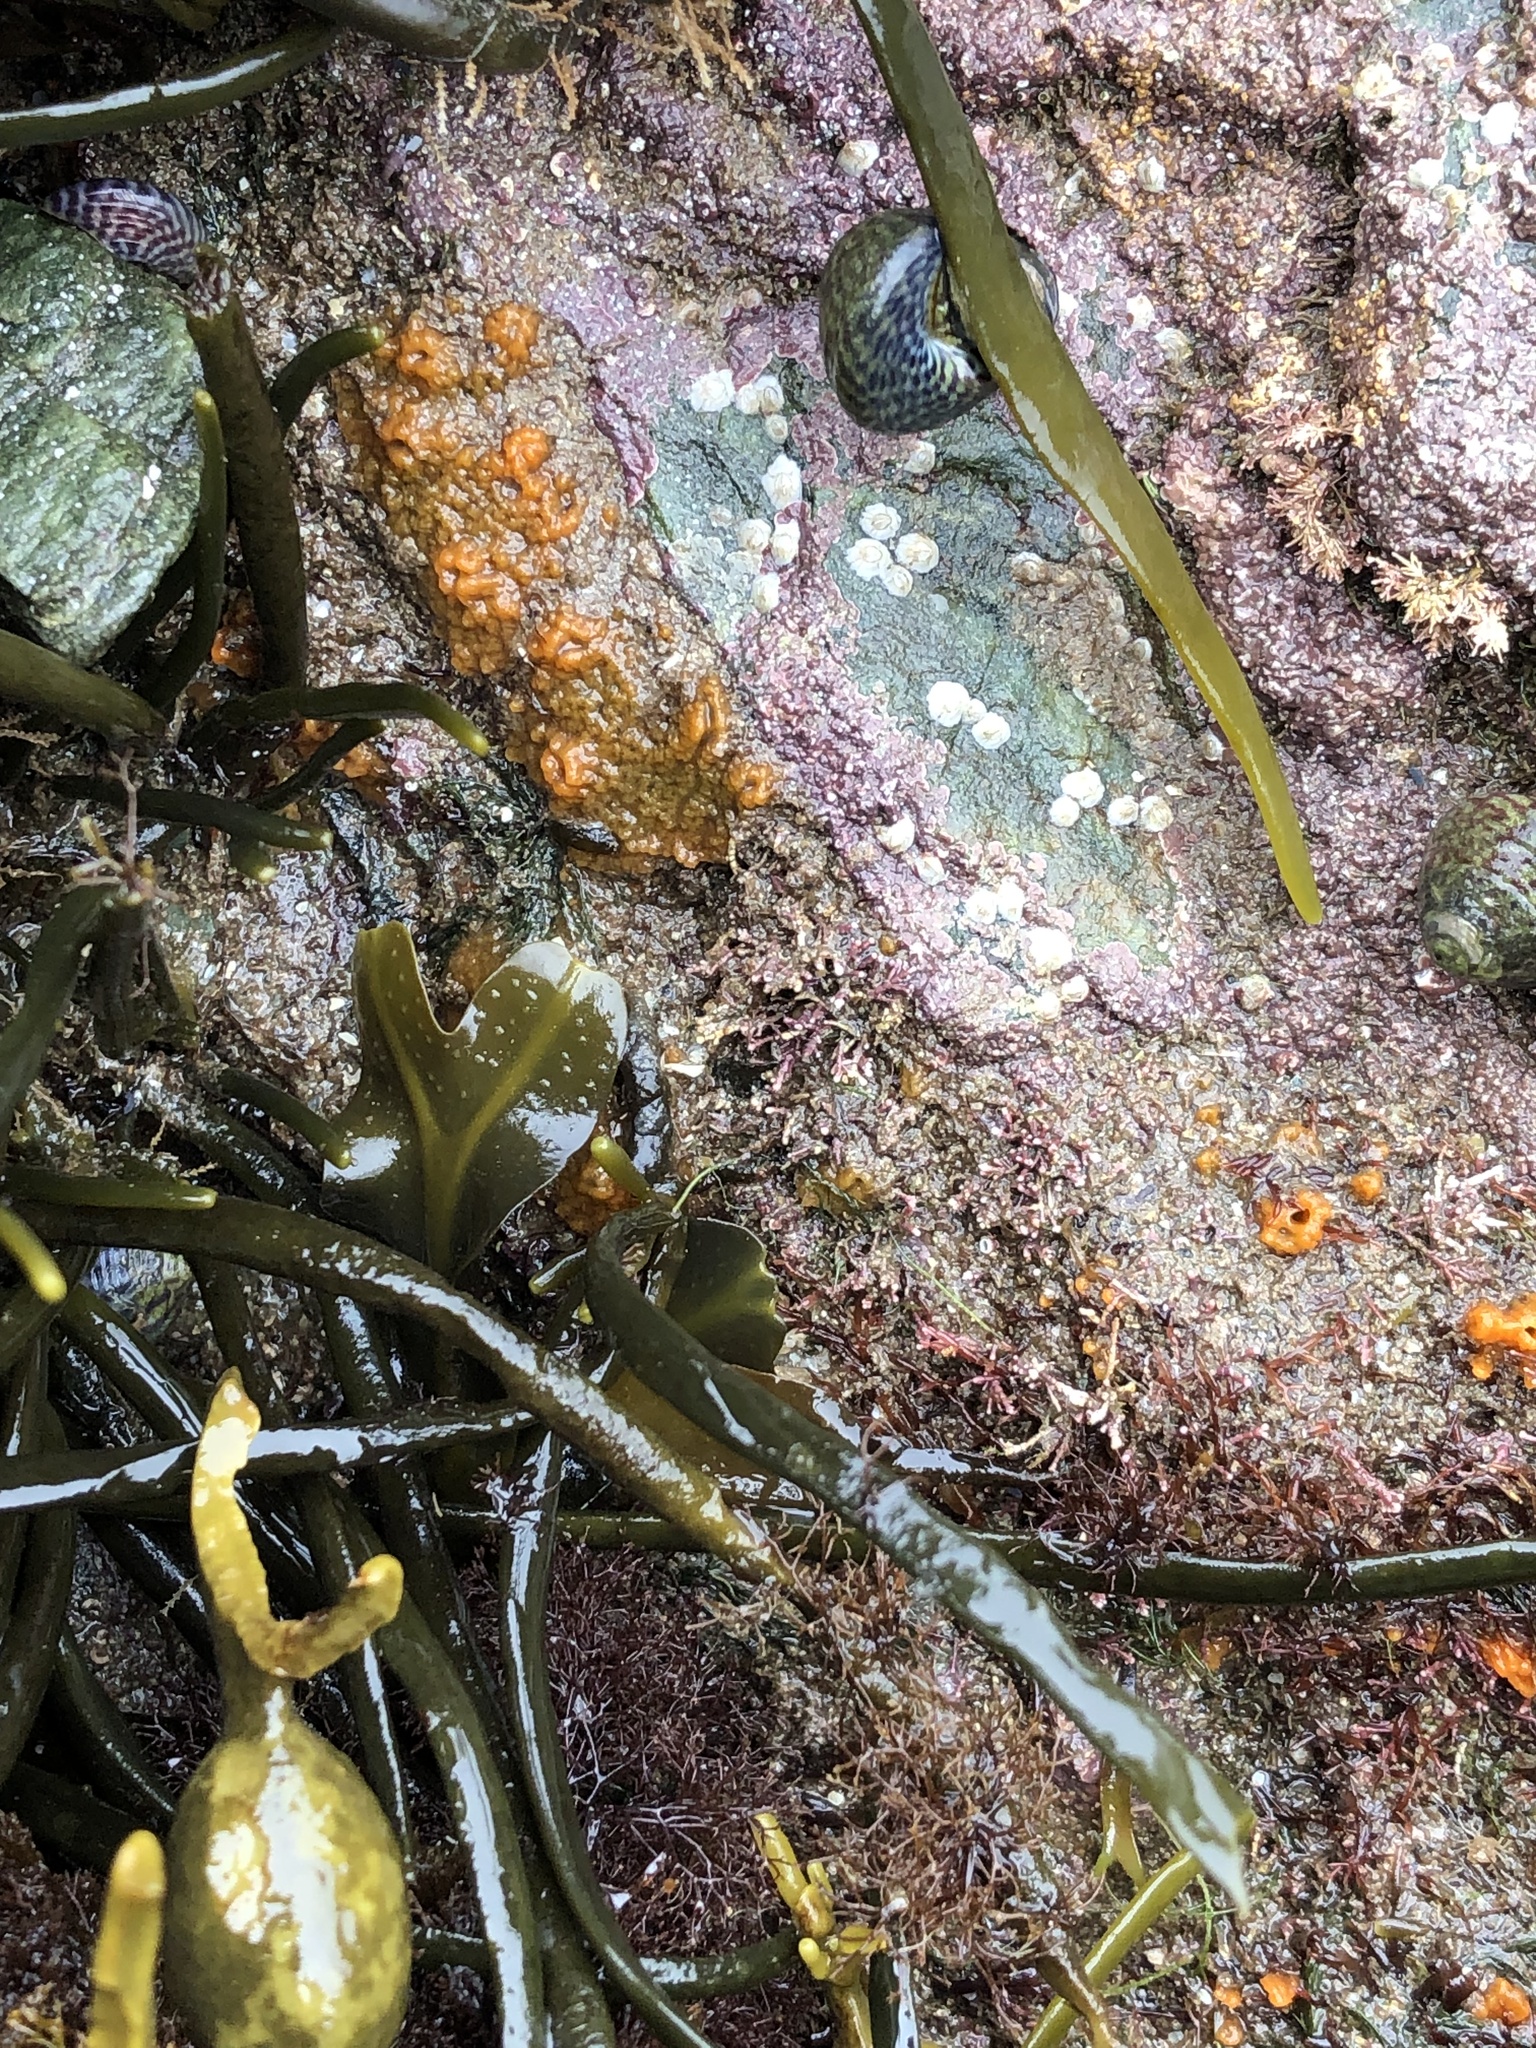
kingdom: Animalia
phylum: Porifera
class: Demospongiae
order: Suberitida
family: Halichondriidae
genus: Hymeniacidon
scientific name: Hymeniacidon perlevis
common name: Crumb-of-bread sponge
